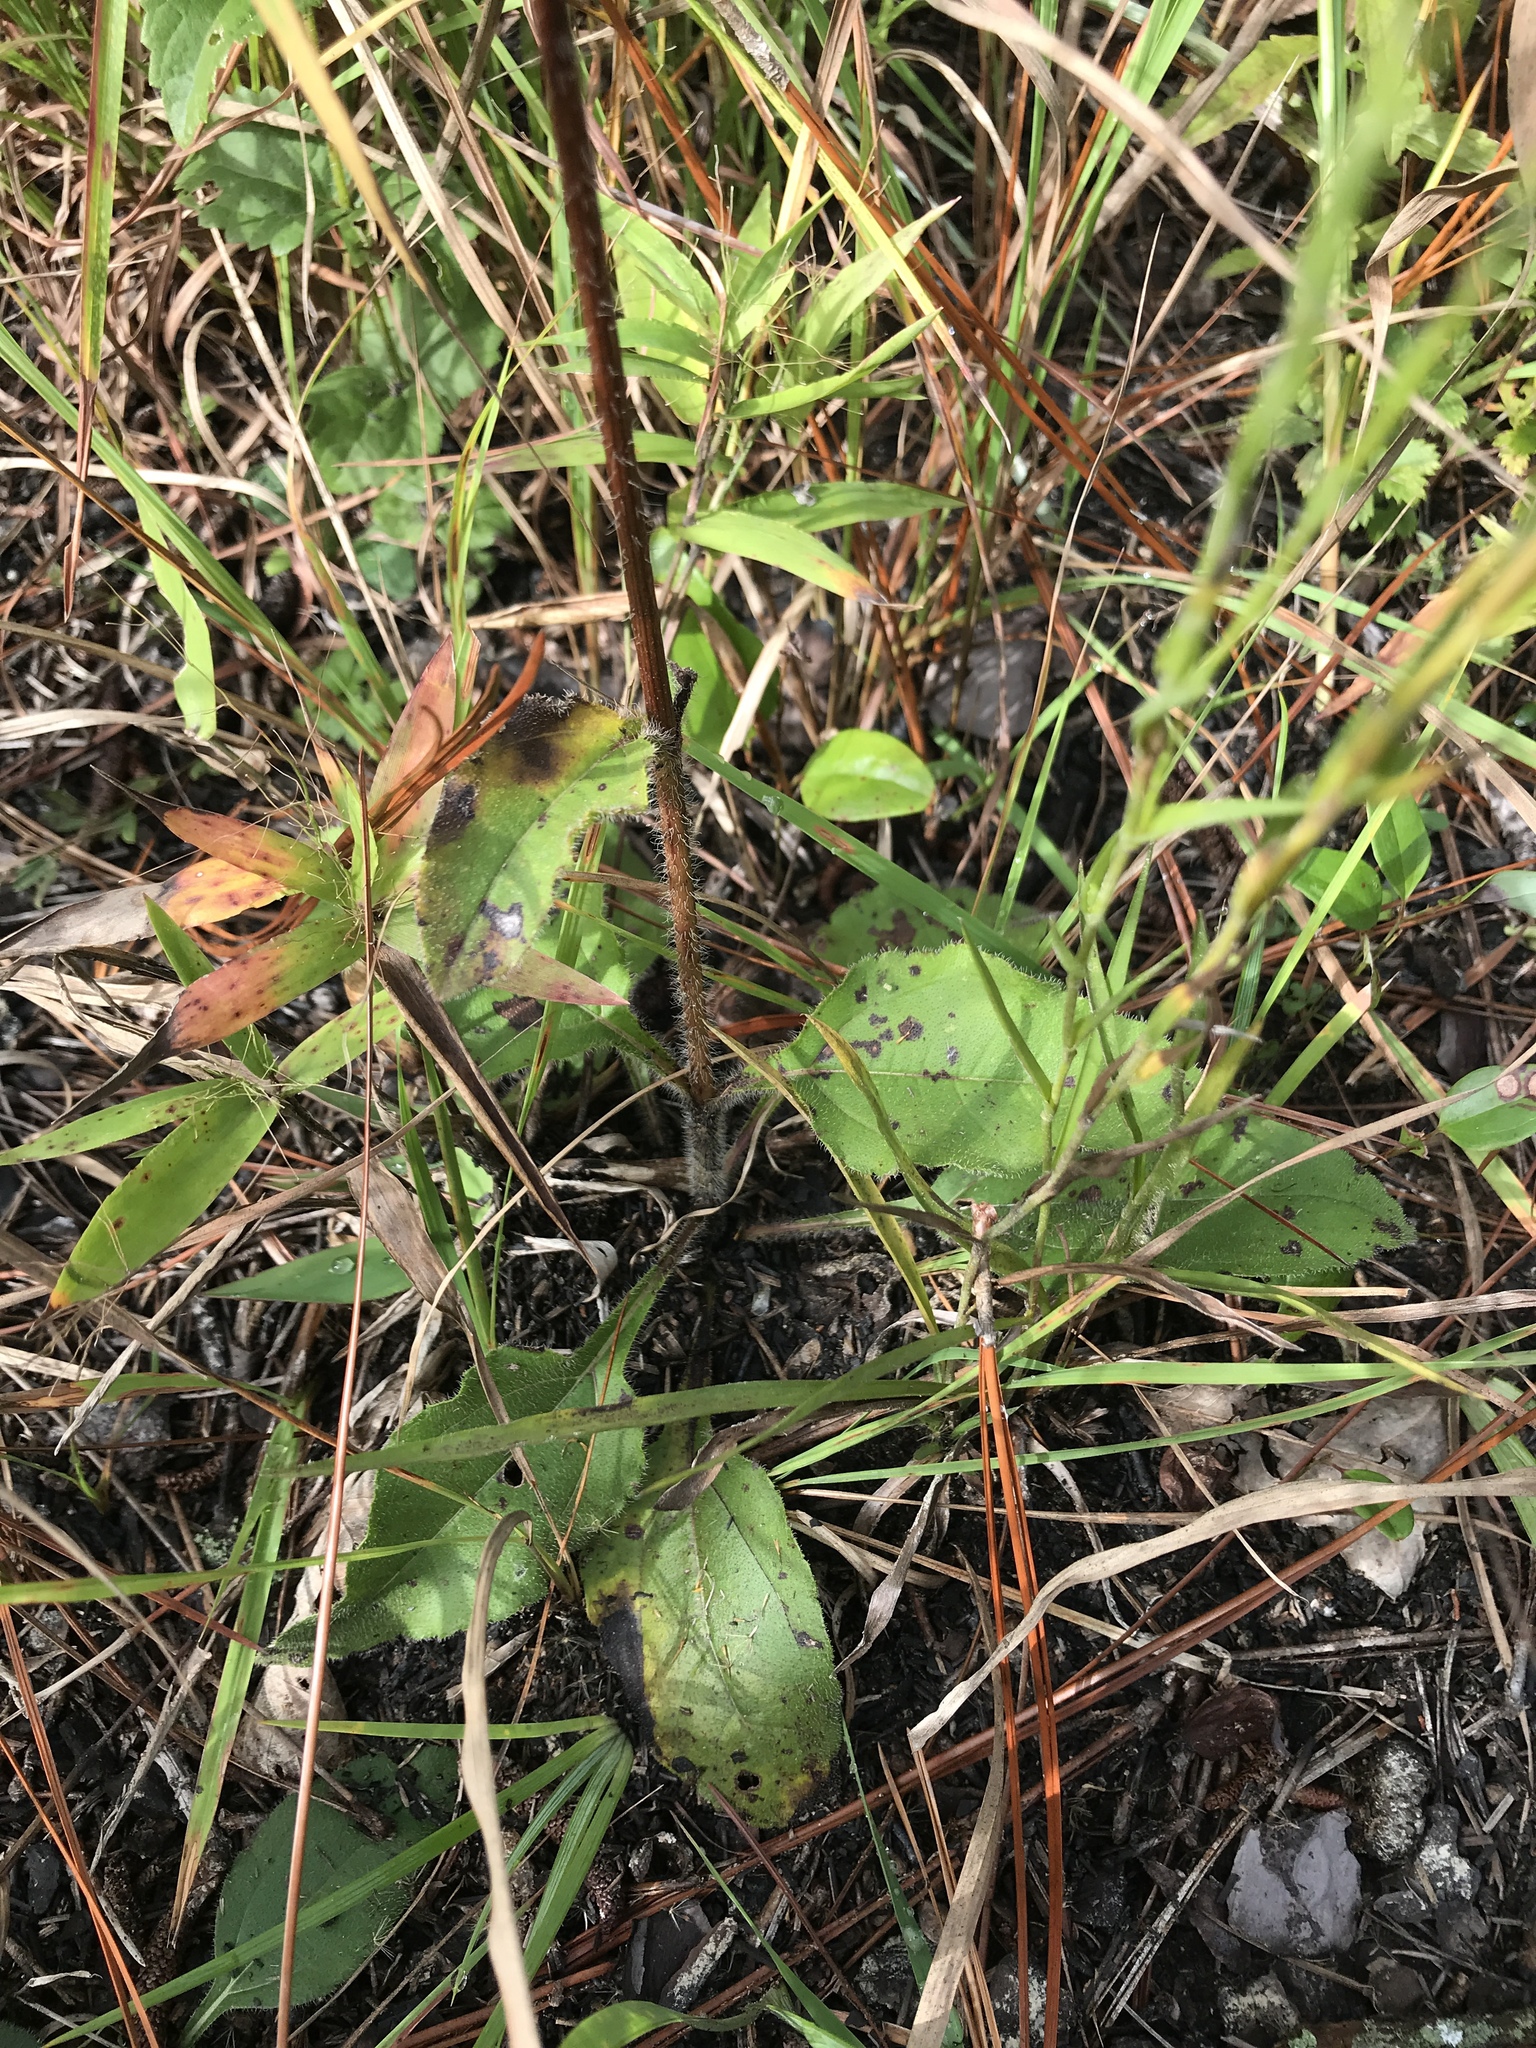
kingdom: Plantae
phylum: Tracheophyta
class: Magnoliopsida
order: Asterales
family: Asteraceae
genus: Helianthus
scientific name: Helianthus atrorubens
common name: Dark-eyed sunflower
